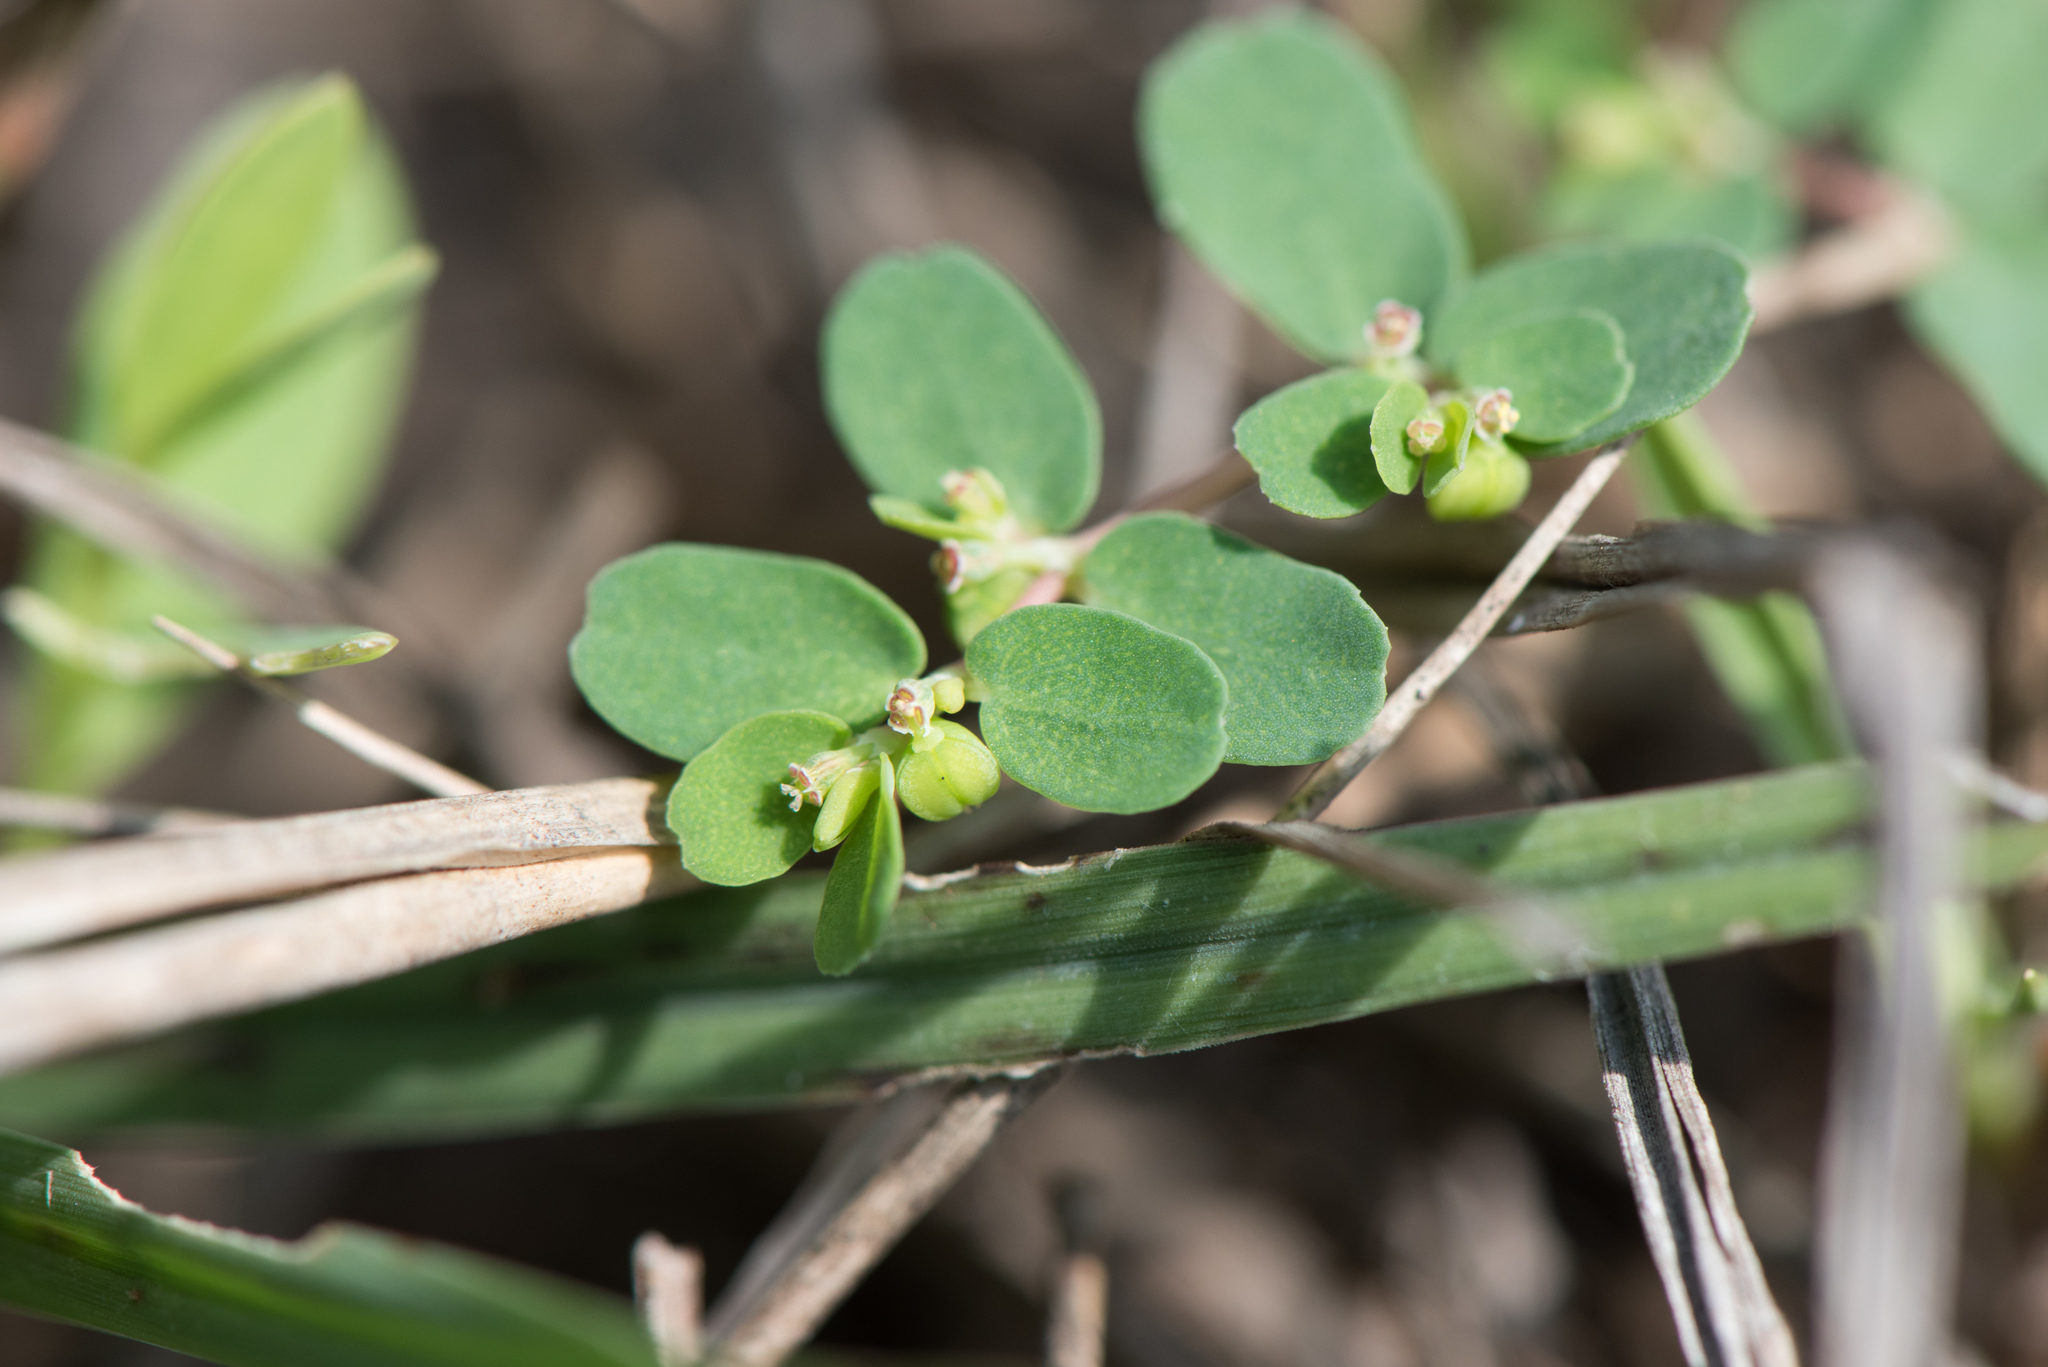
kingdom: Plantae
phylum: Tracheophyta
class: Magnoliopsida
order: Malpighiales
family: Euphorbiaceae
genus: Euphorbia
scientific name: Euphorbia taihsiensis
